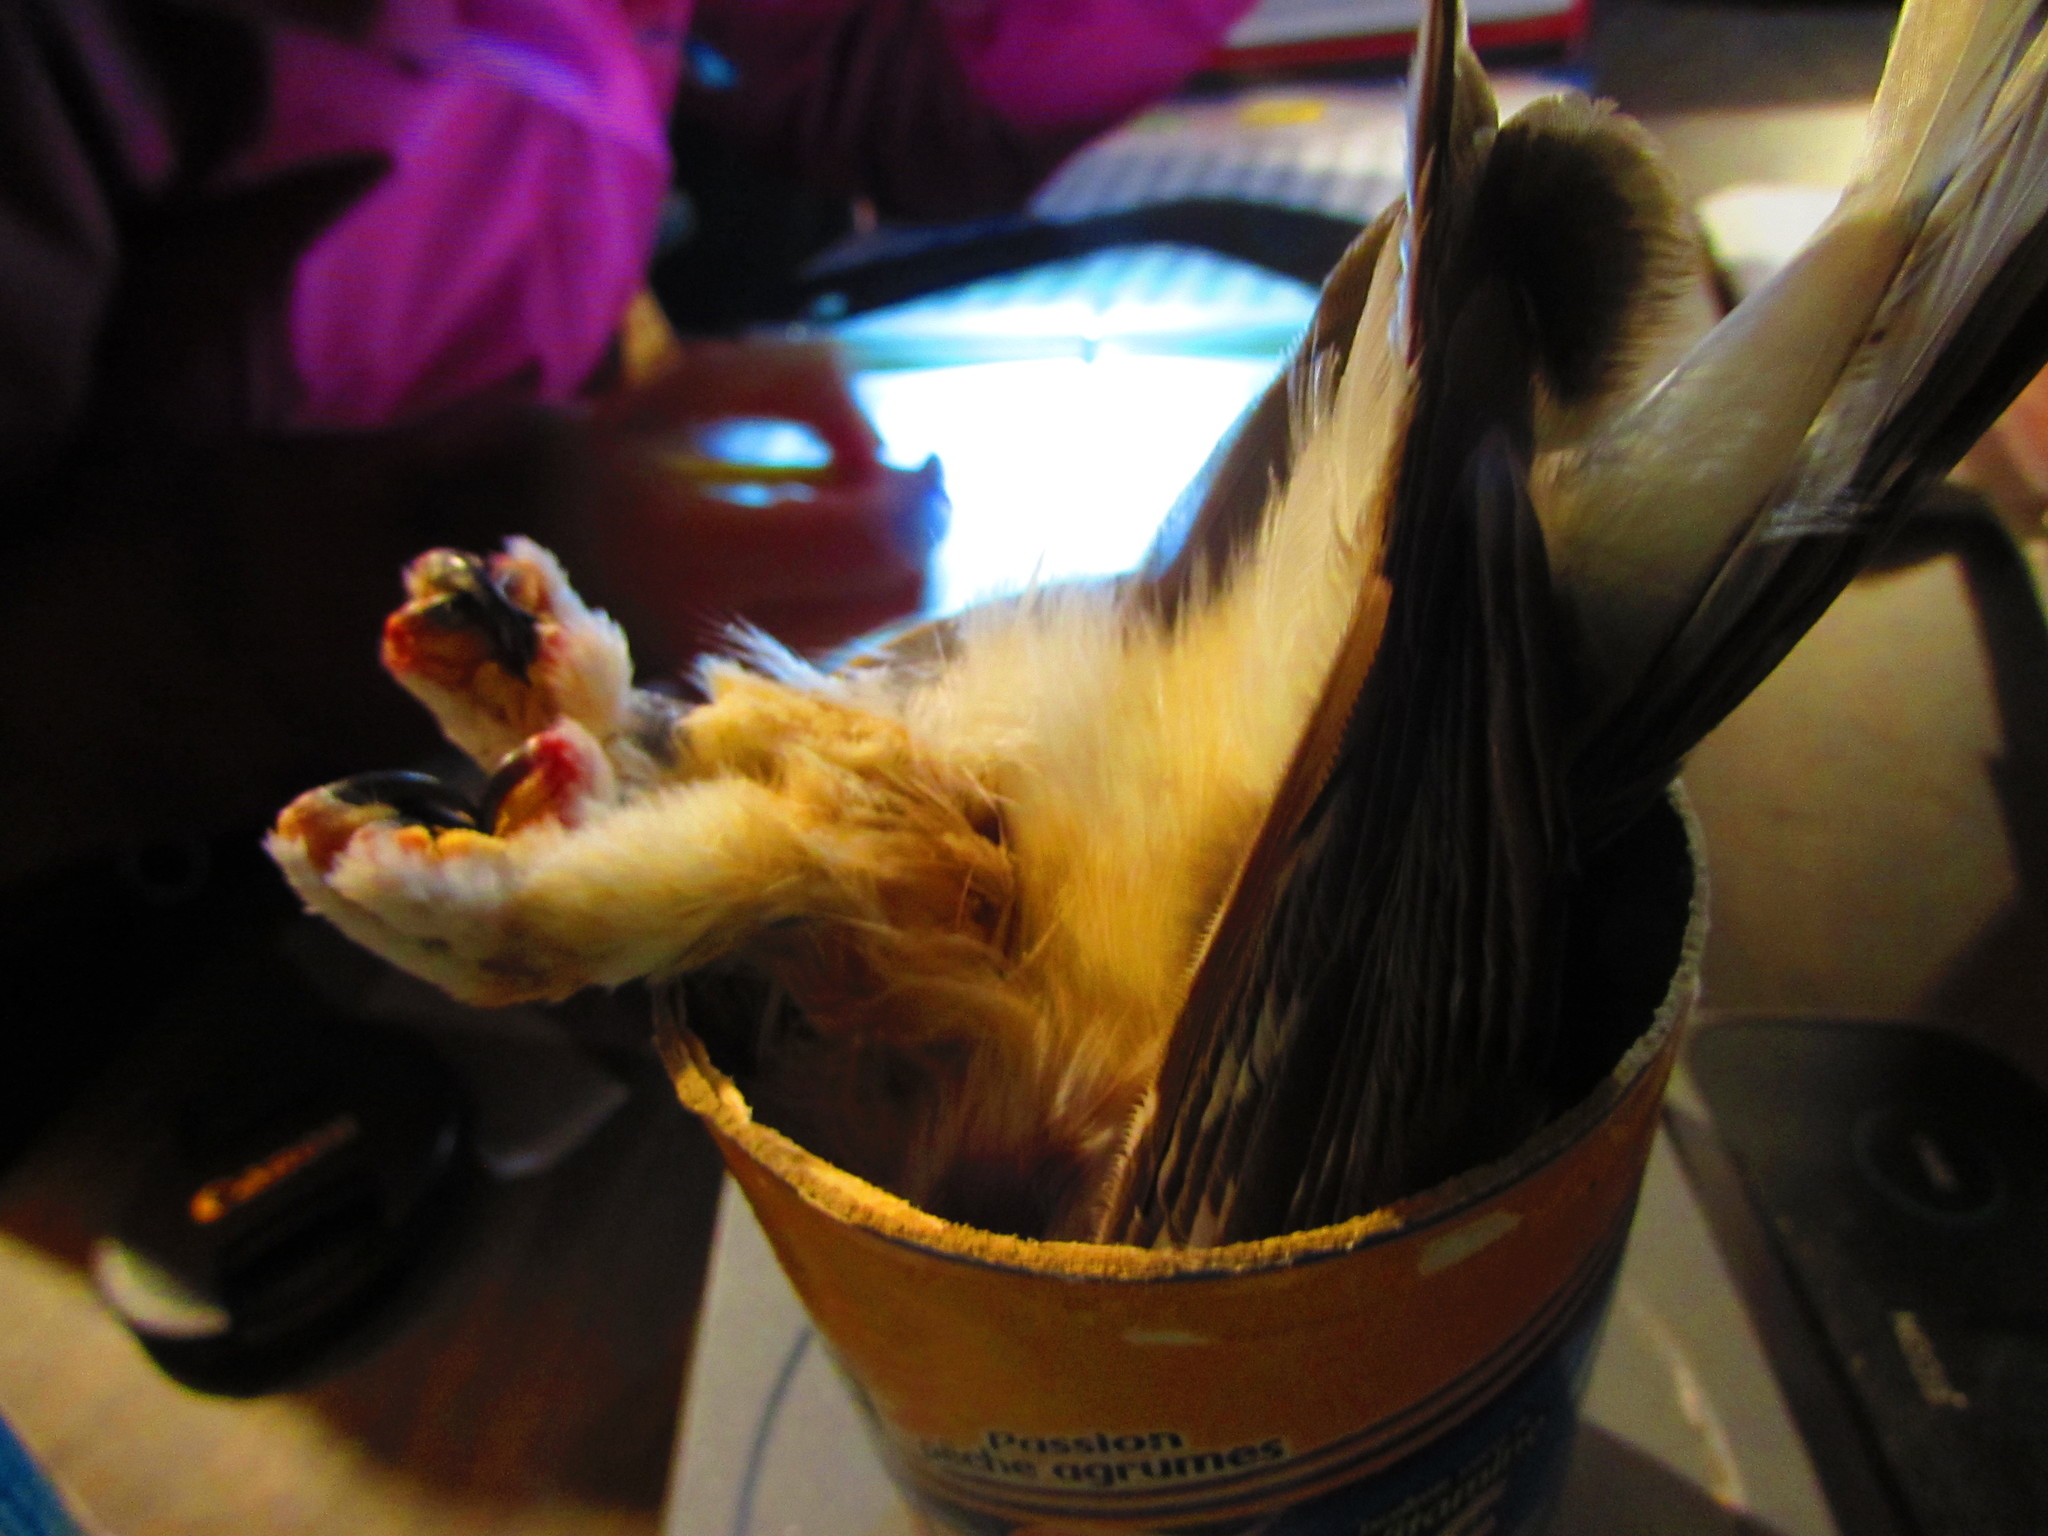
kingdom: Animalia
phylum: Chordata
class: Aves
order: Strigiformes
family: Strigidae
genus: Aegolius
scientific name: Aegolius acadicus
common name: Northern saw-whet owl
